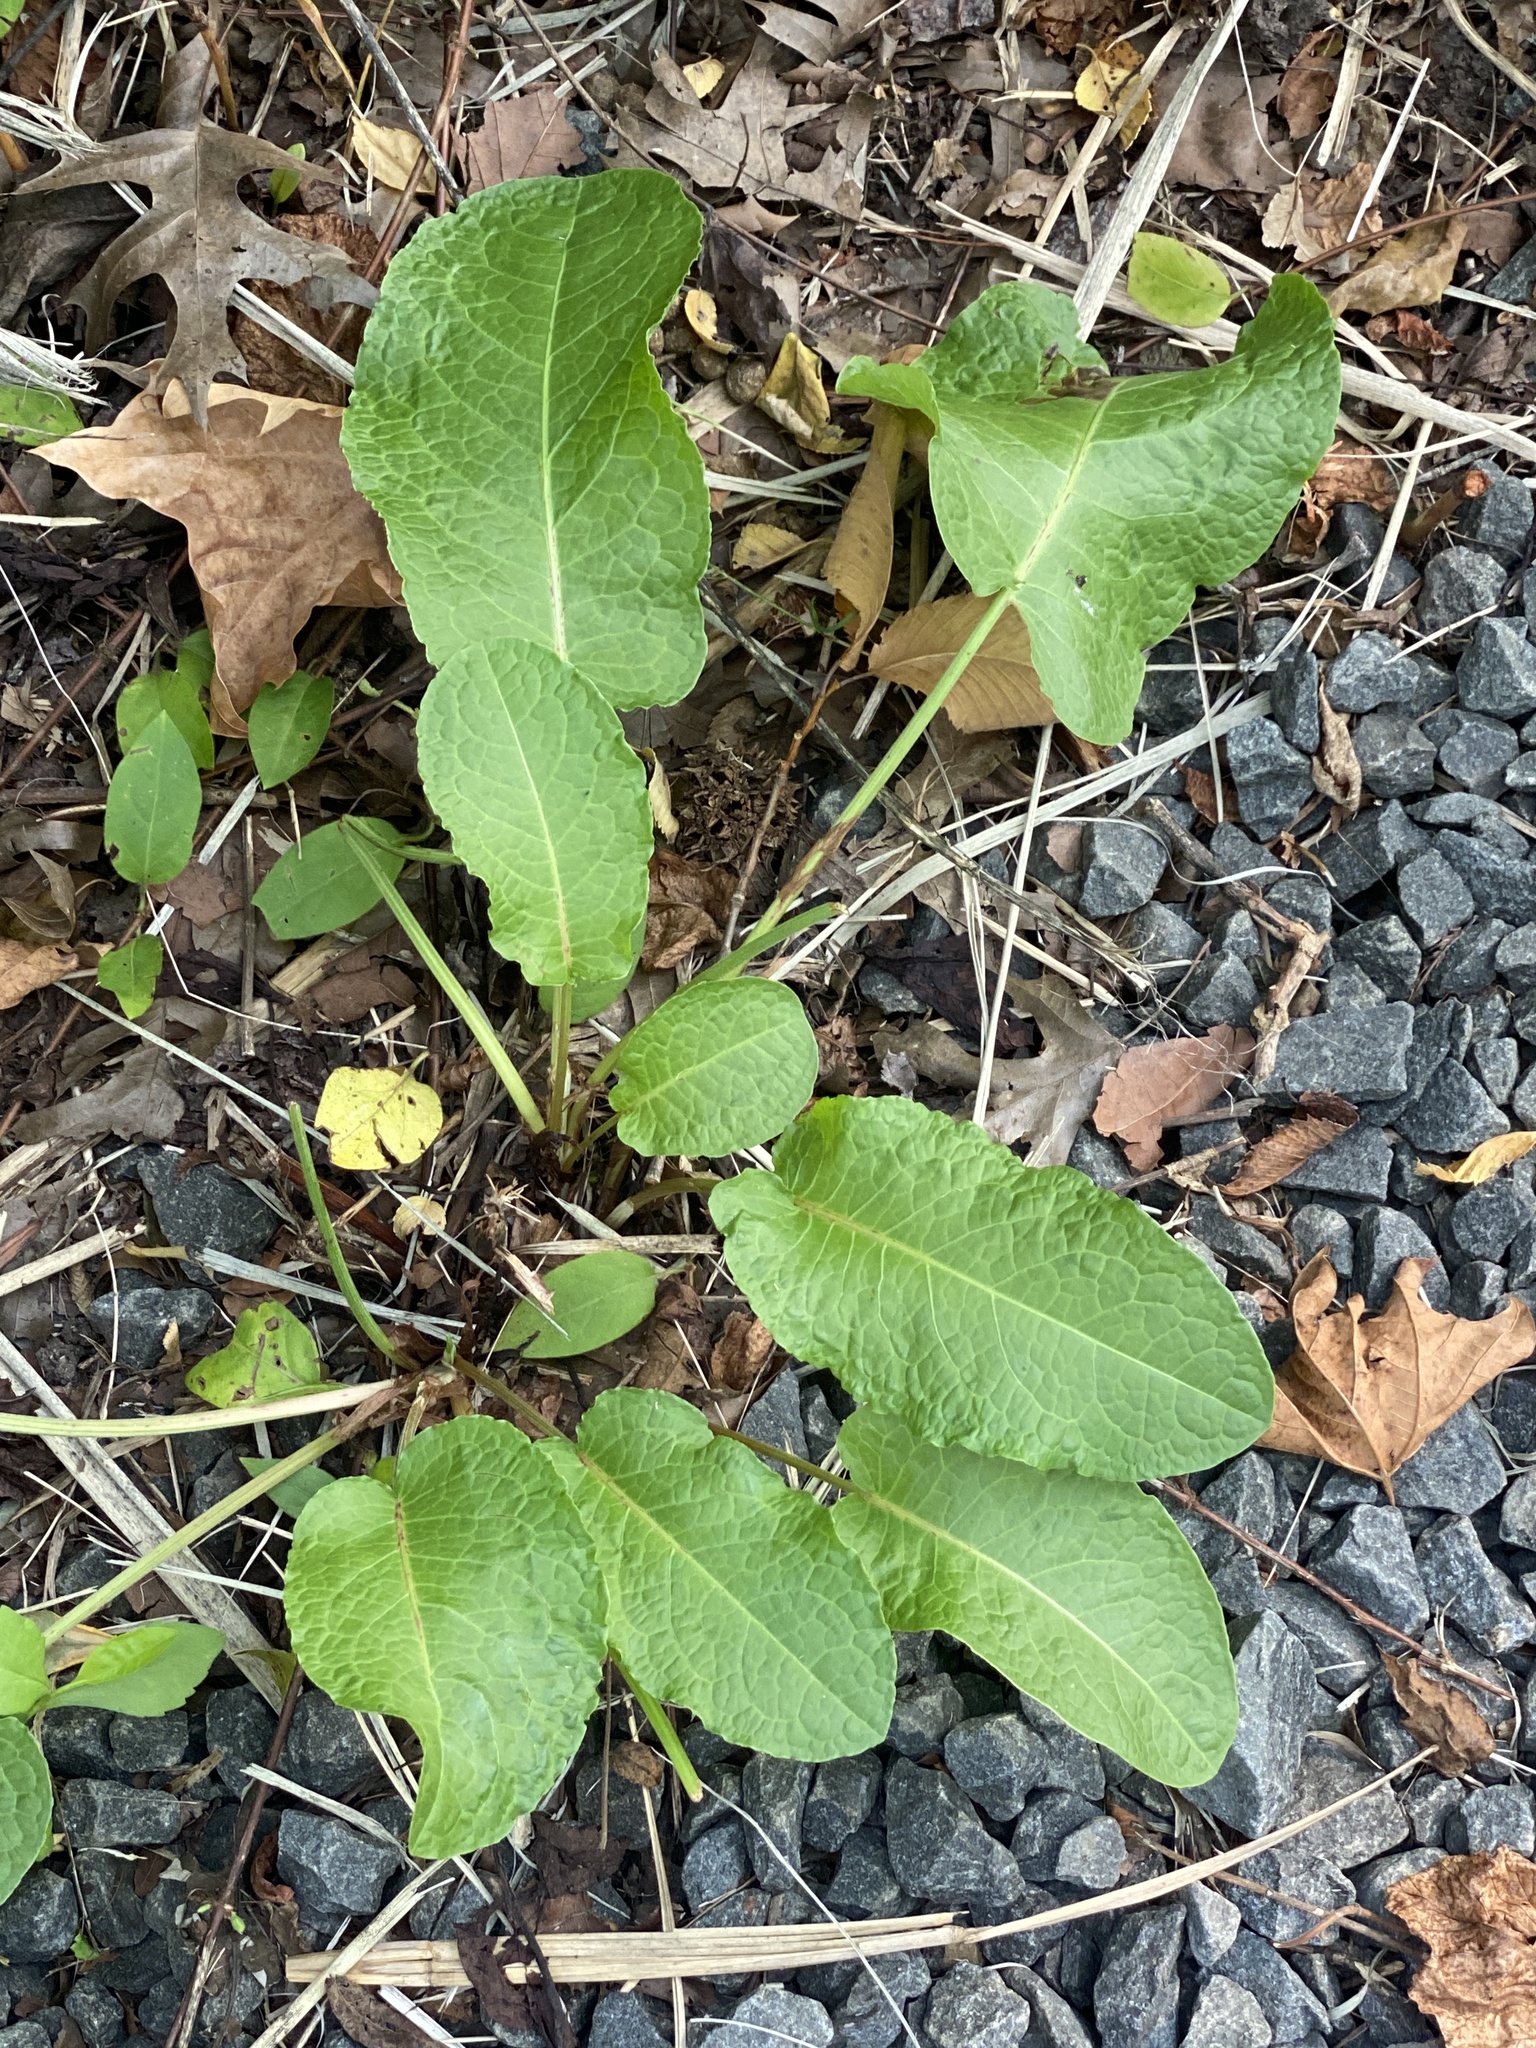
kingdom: Plantae
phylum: Tracheophyta
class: Magnoliopsida
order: Caryophyllales
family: Polygonaceae
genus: Rumex
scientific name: Rumex obtusifolius
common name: Bitter dock
